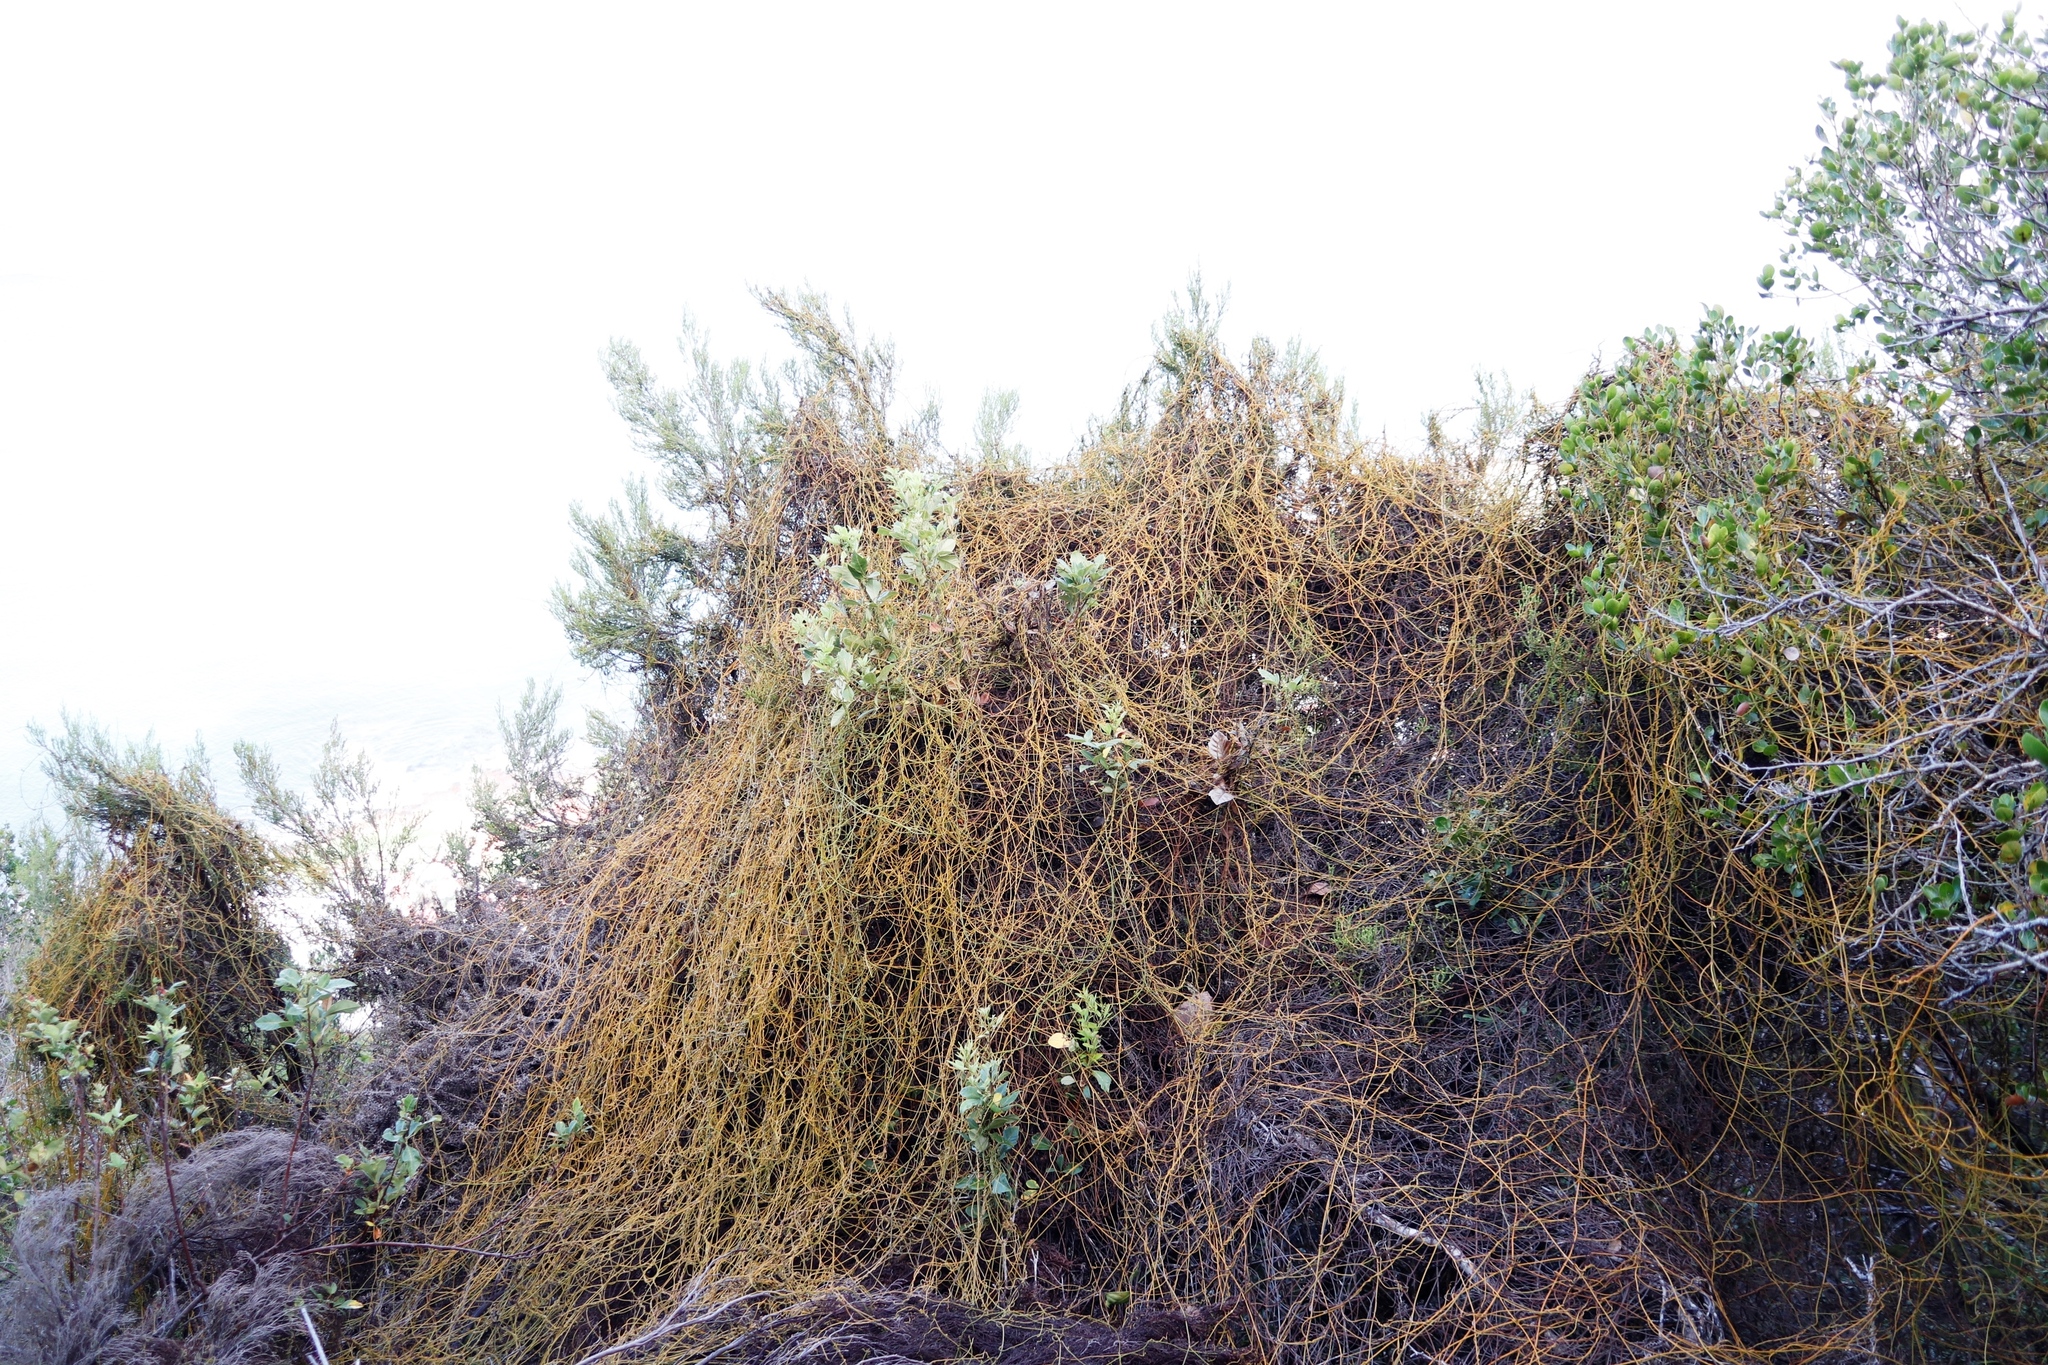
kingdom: Plantae
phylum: Tracheophyta
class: Magnoliopsida
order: Laurales
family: Lauraceae
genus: Cassytha
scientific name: Cassytha ciliolata
